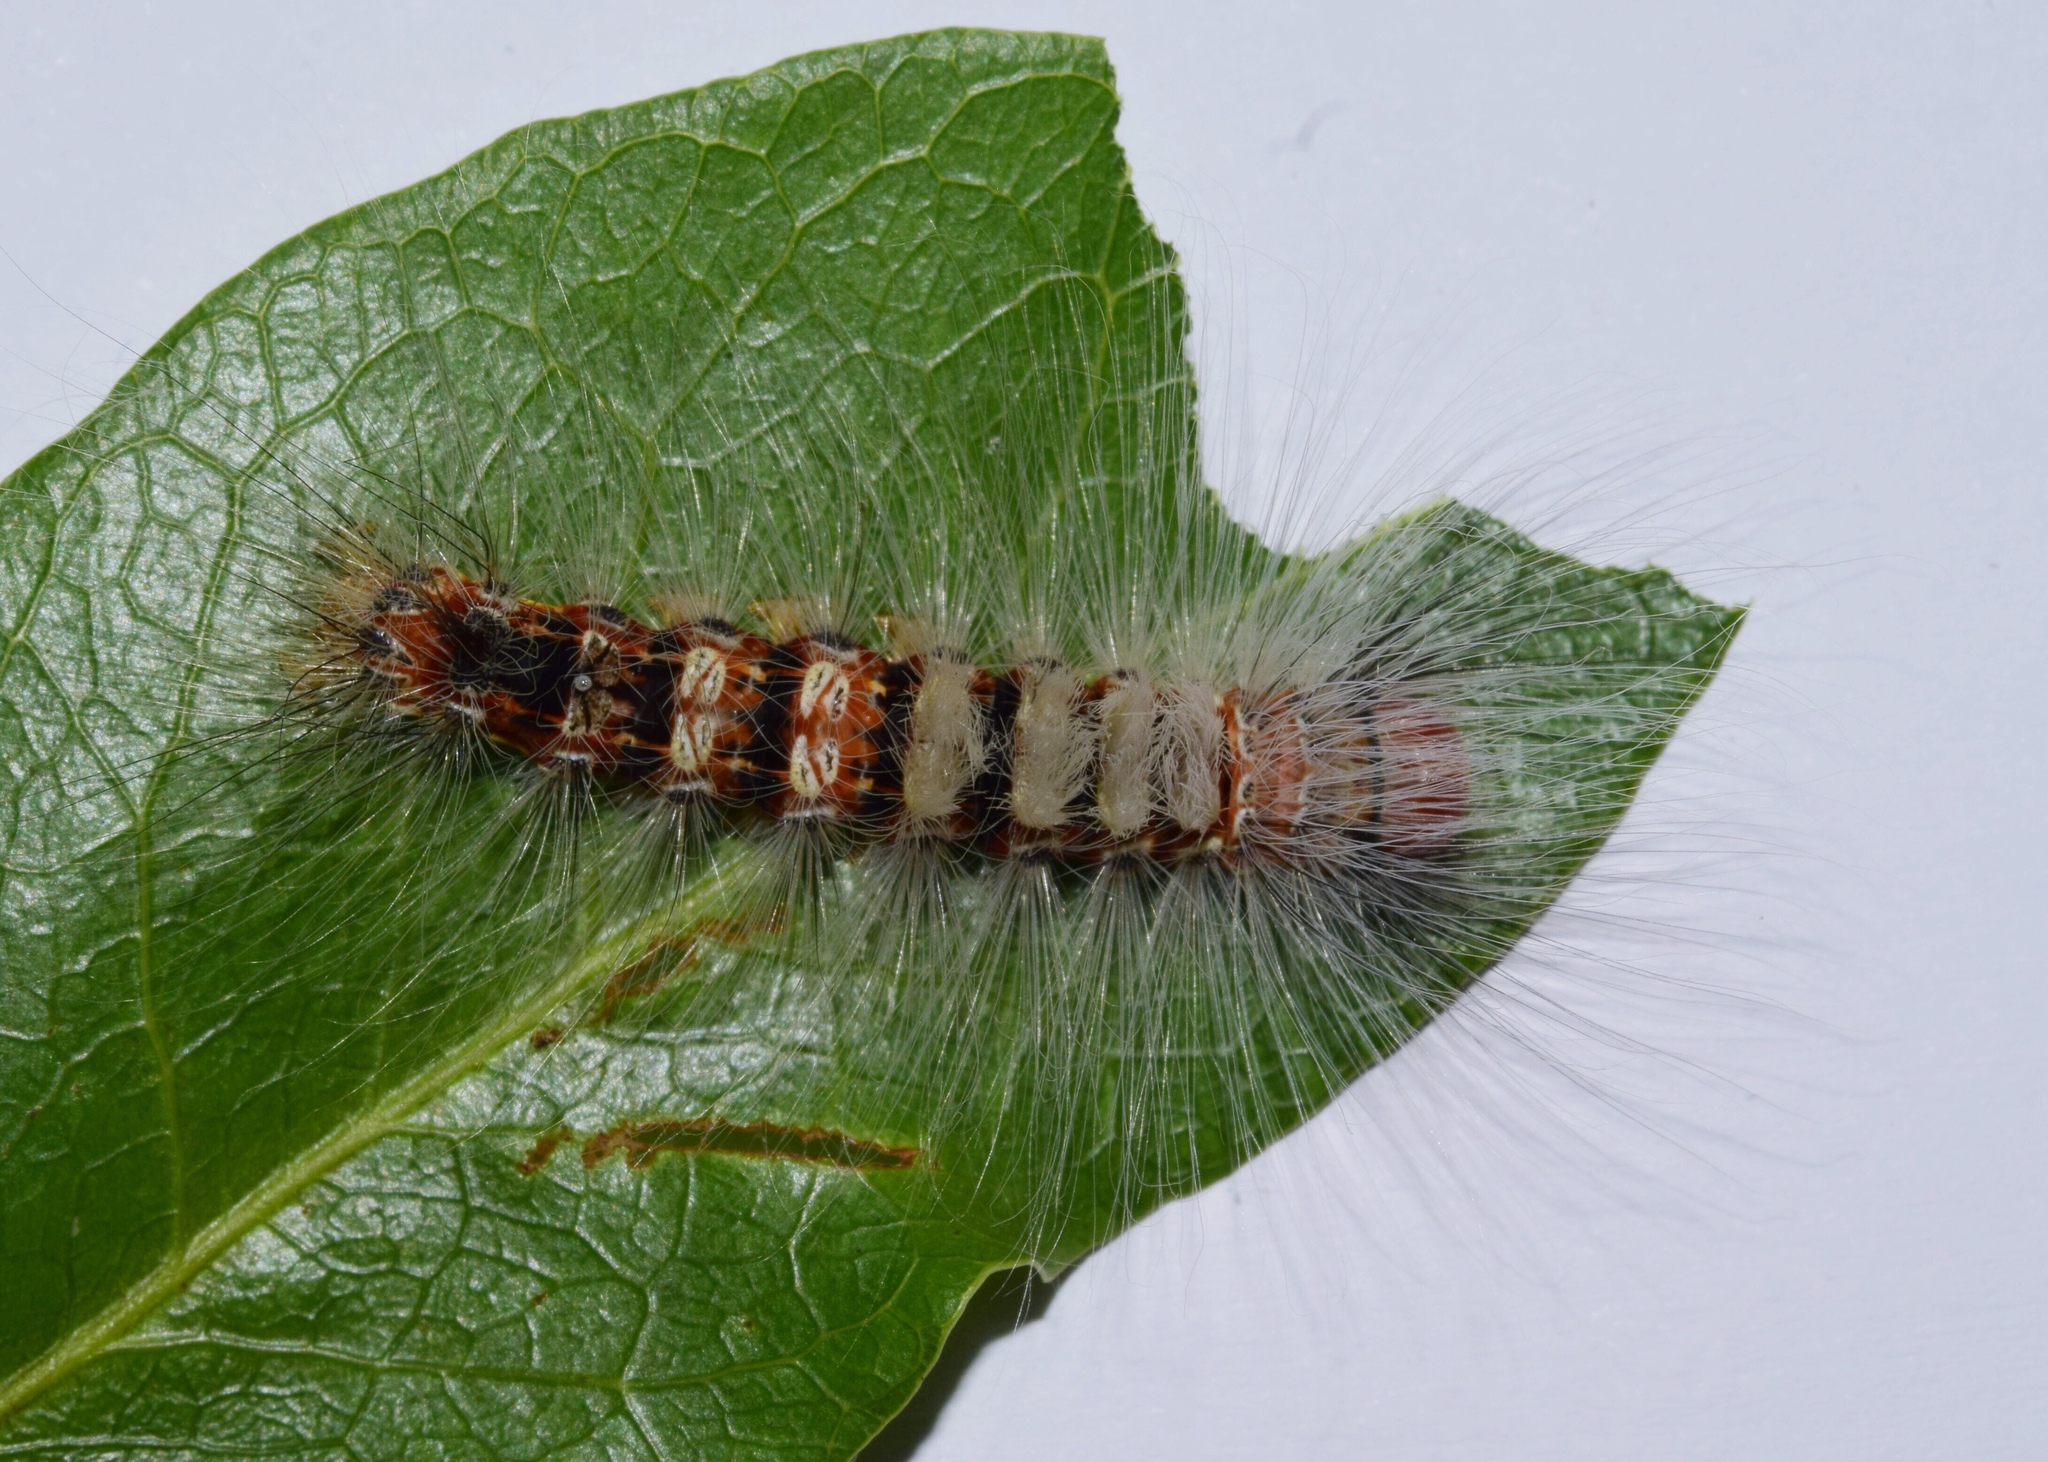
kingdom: Animalia
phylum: Arthropoda
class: Insecta
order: Lepidoptera
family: Erebidae
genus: Dasychira
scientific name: Dasychira georgiana
